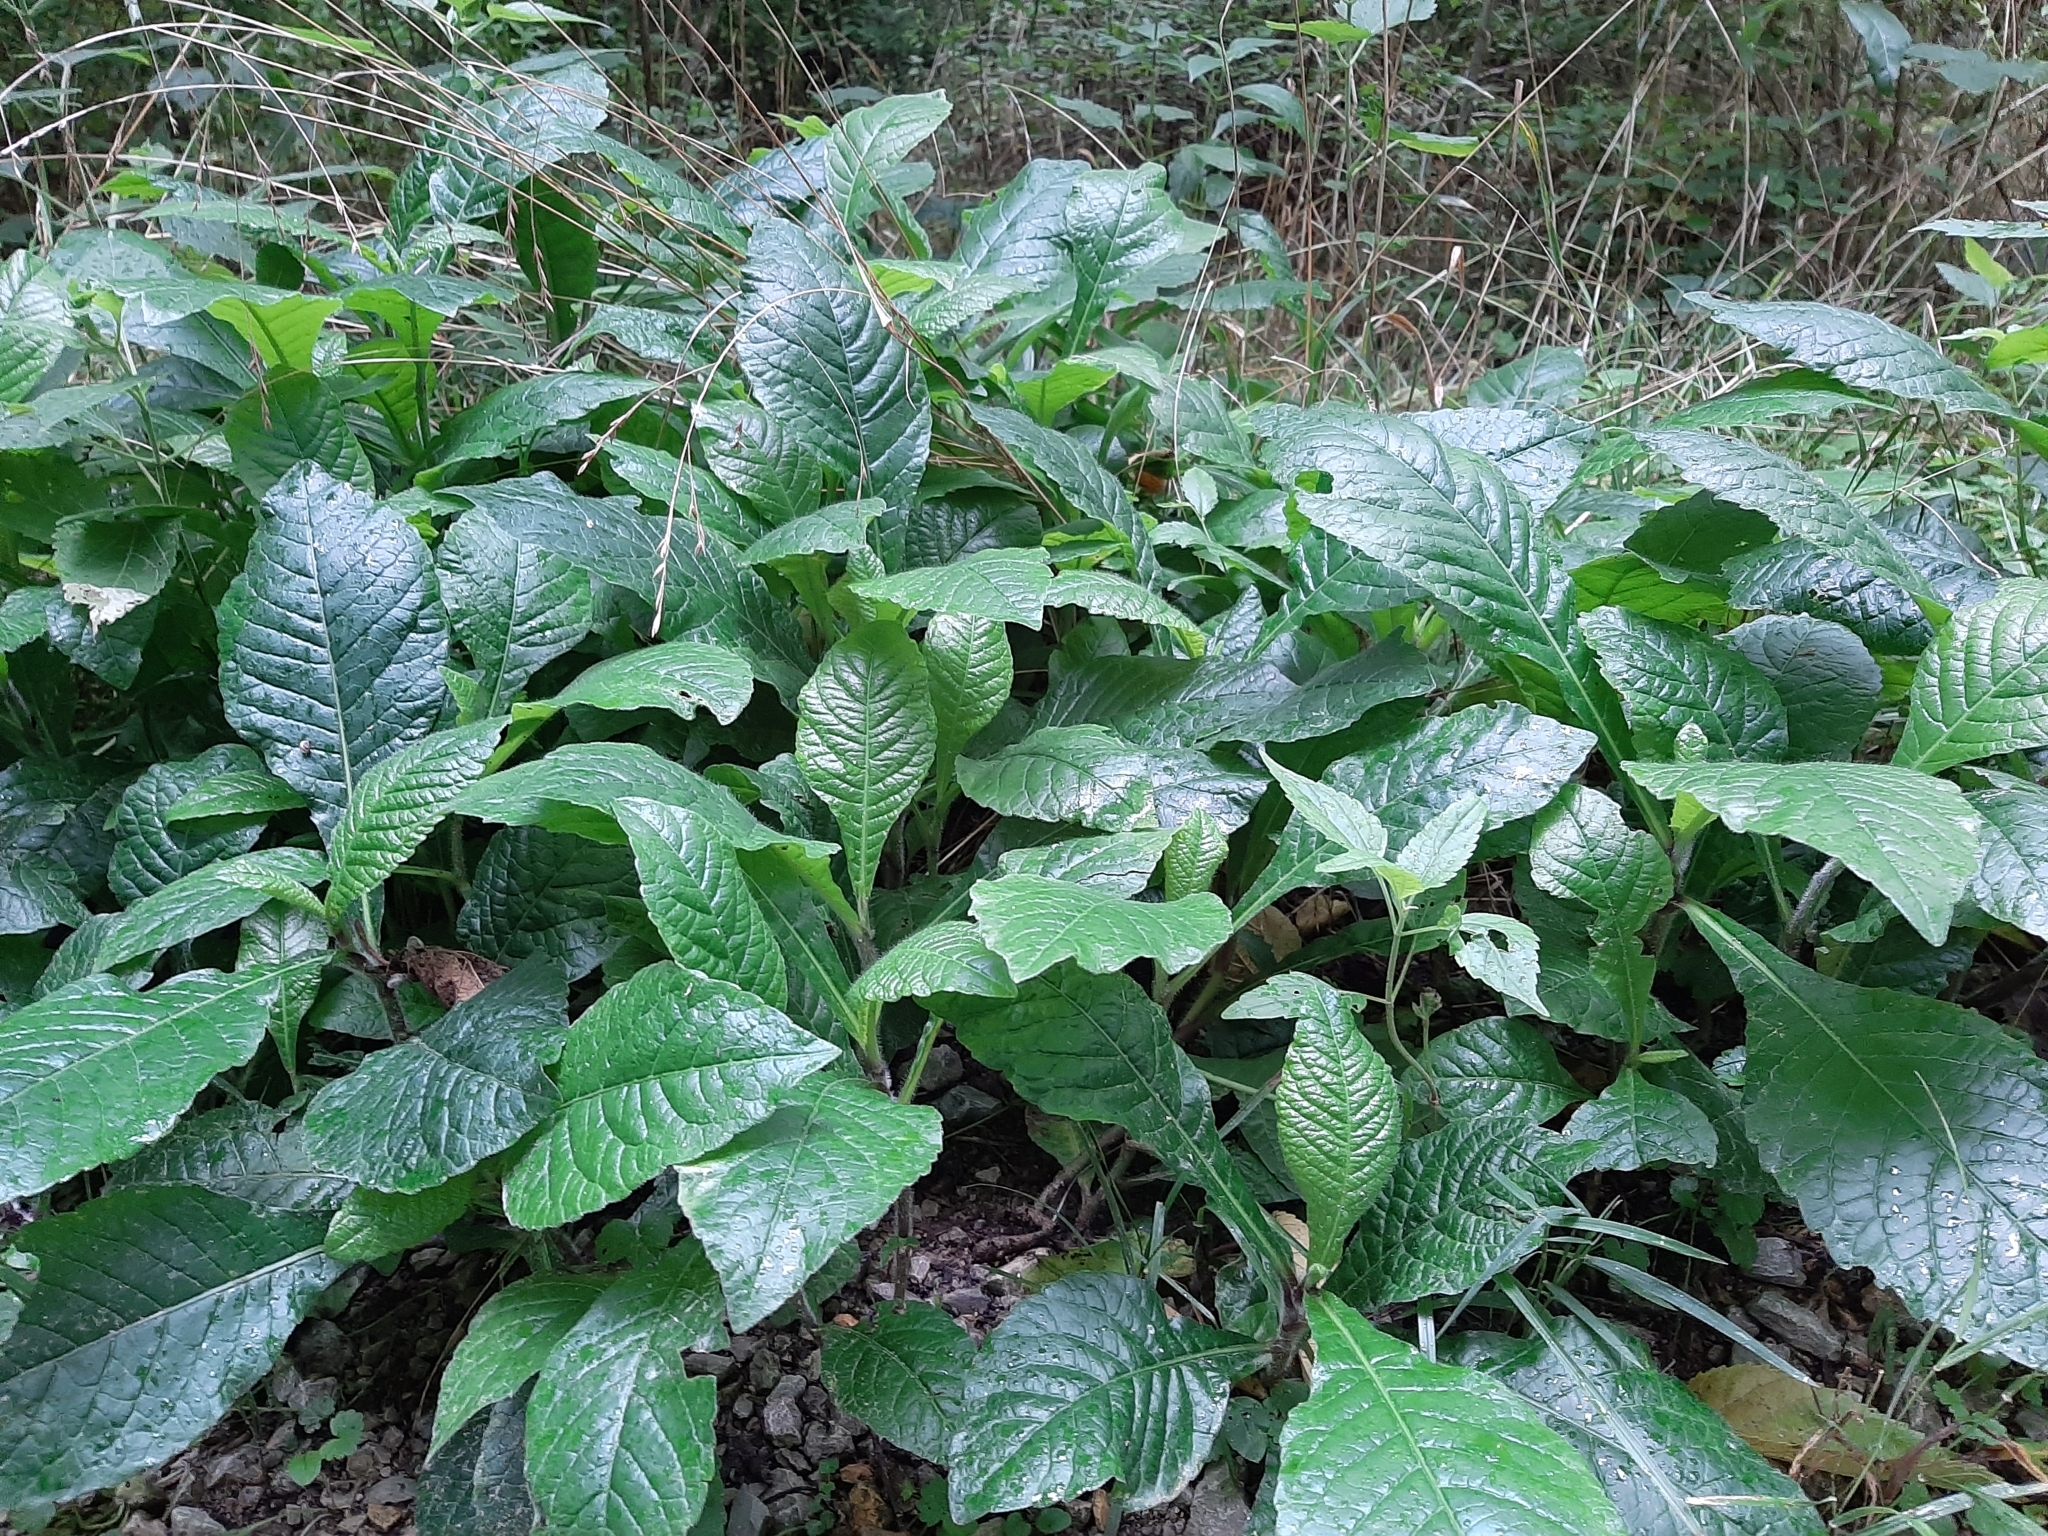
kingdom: Plantae
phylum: Tracheophyta
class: Magnoliopsida
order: Asterales
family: Asteraceae
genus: Elephantopus
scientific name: Elephantopus carolinianus
